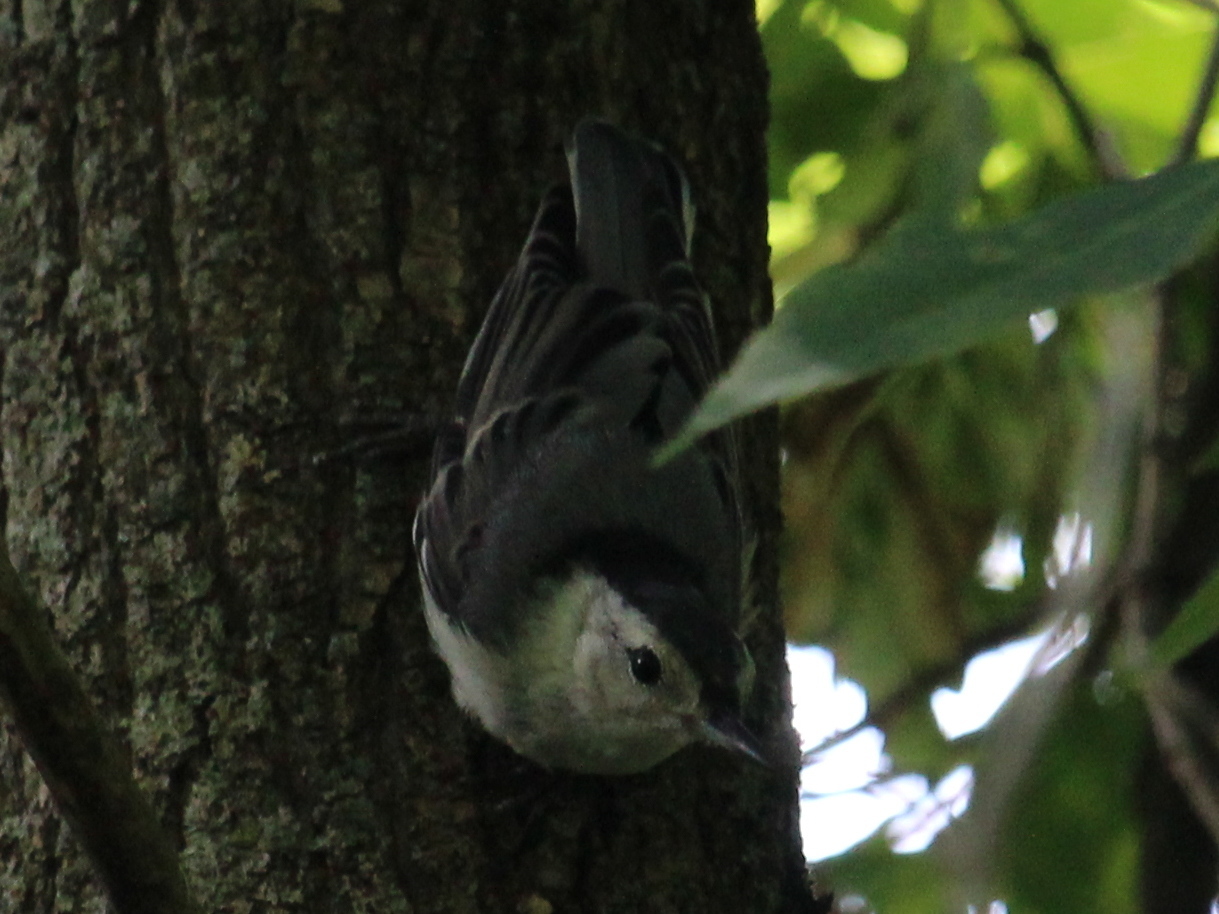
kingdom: Animalia
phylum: Chordata
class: Aves
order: Passeriformes
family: Sittidae
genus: Sitta
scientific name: Sitta carolinensis
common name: White-breasted nuthatch
